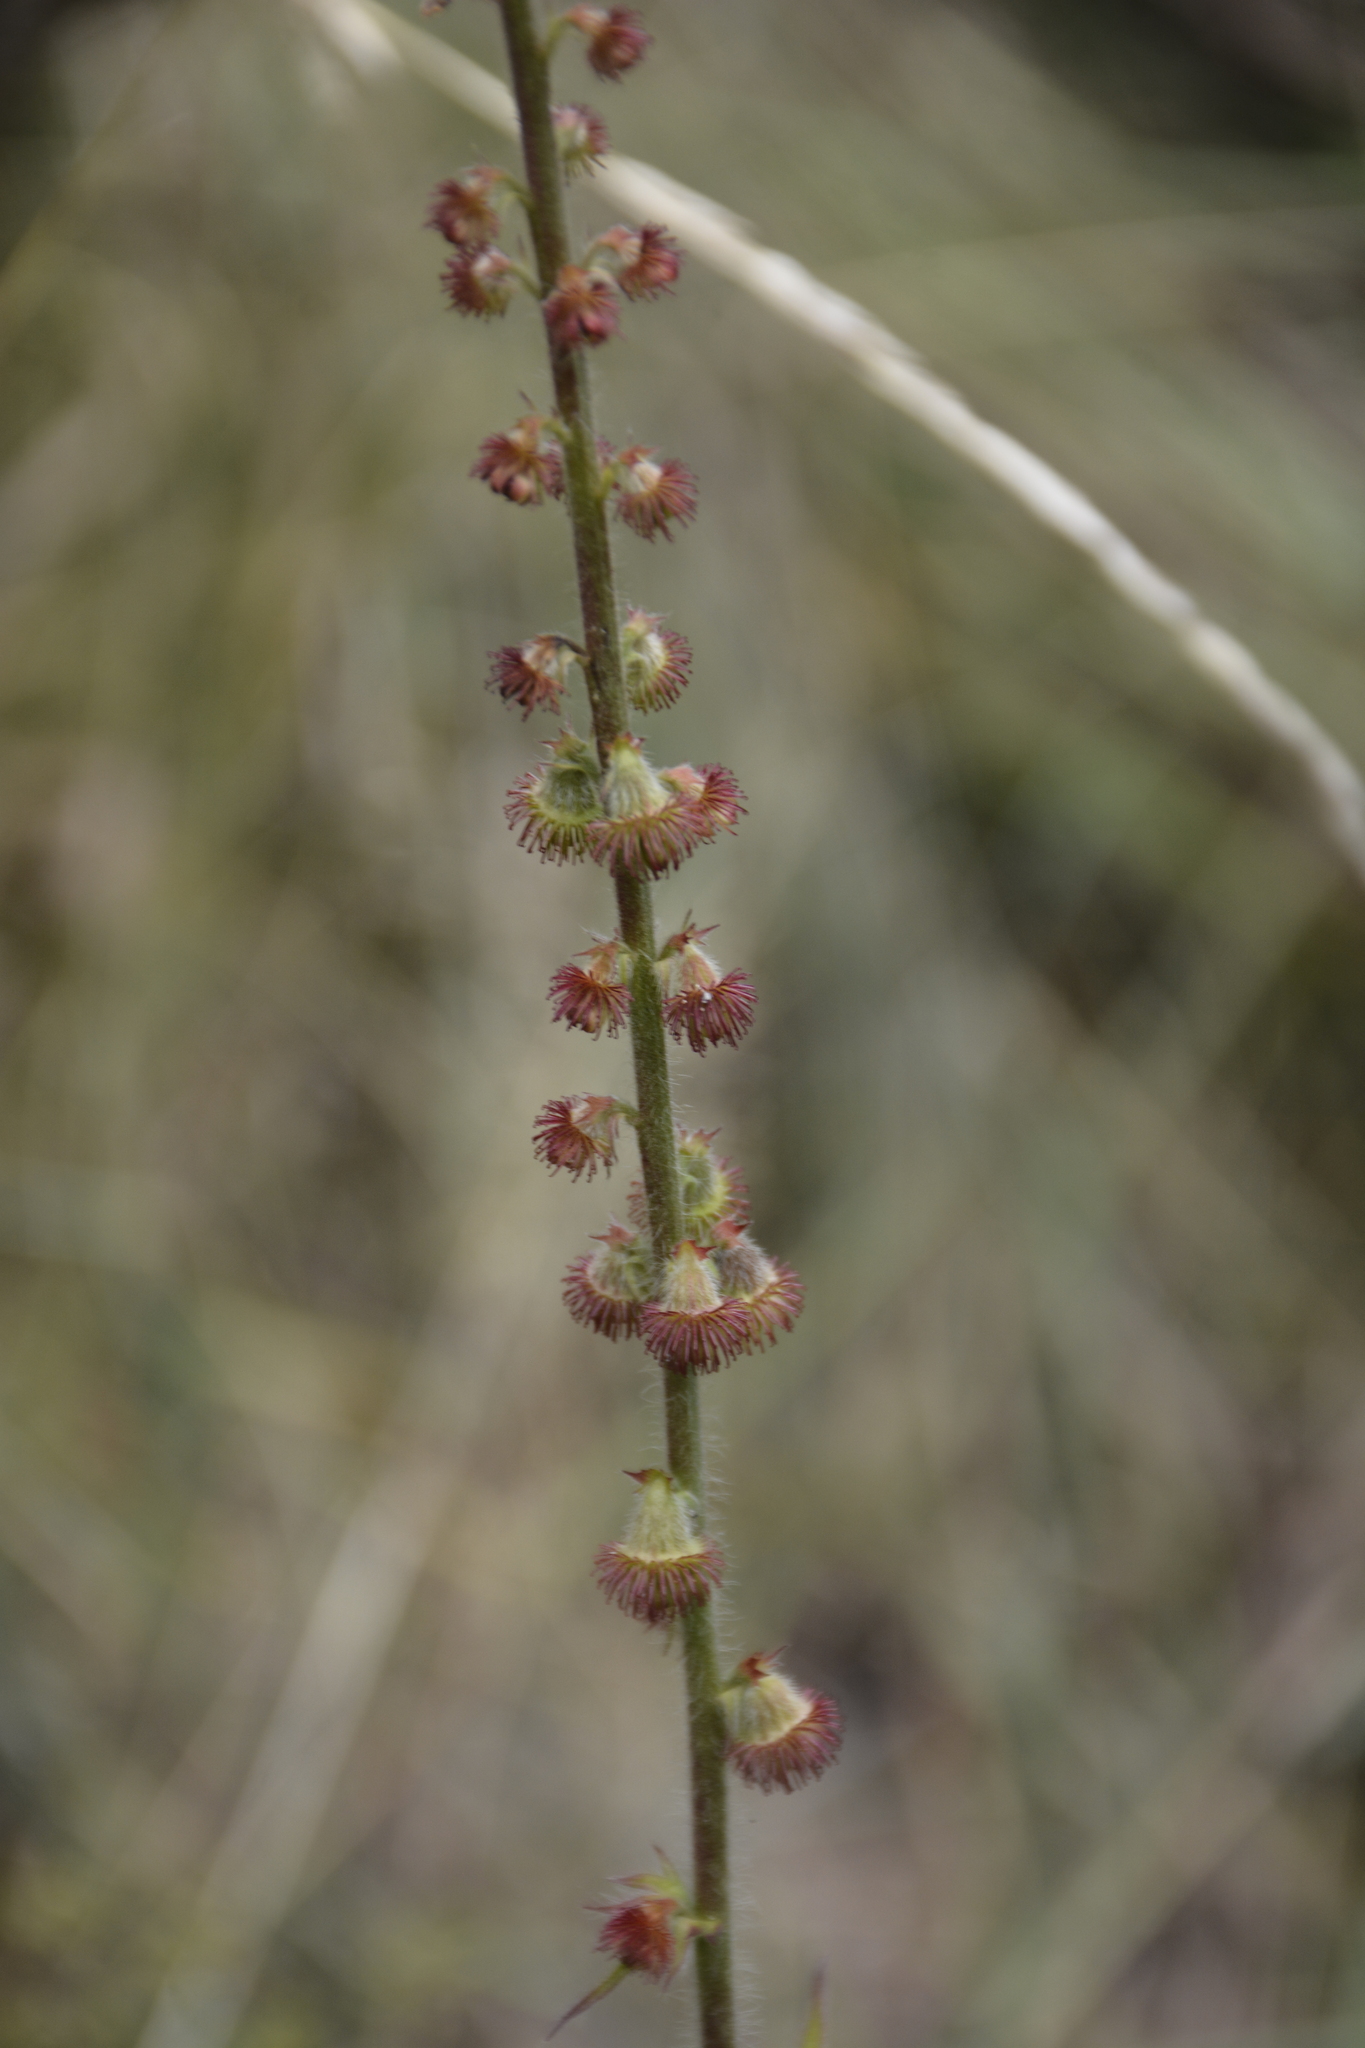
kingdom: Plantae
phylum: Tracheophyta
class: Magnoliopsida
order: Rosales
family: Rosaceae
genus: Agrimonia
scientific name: Agrimonia eupatoria
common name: Agrimony
